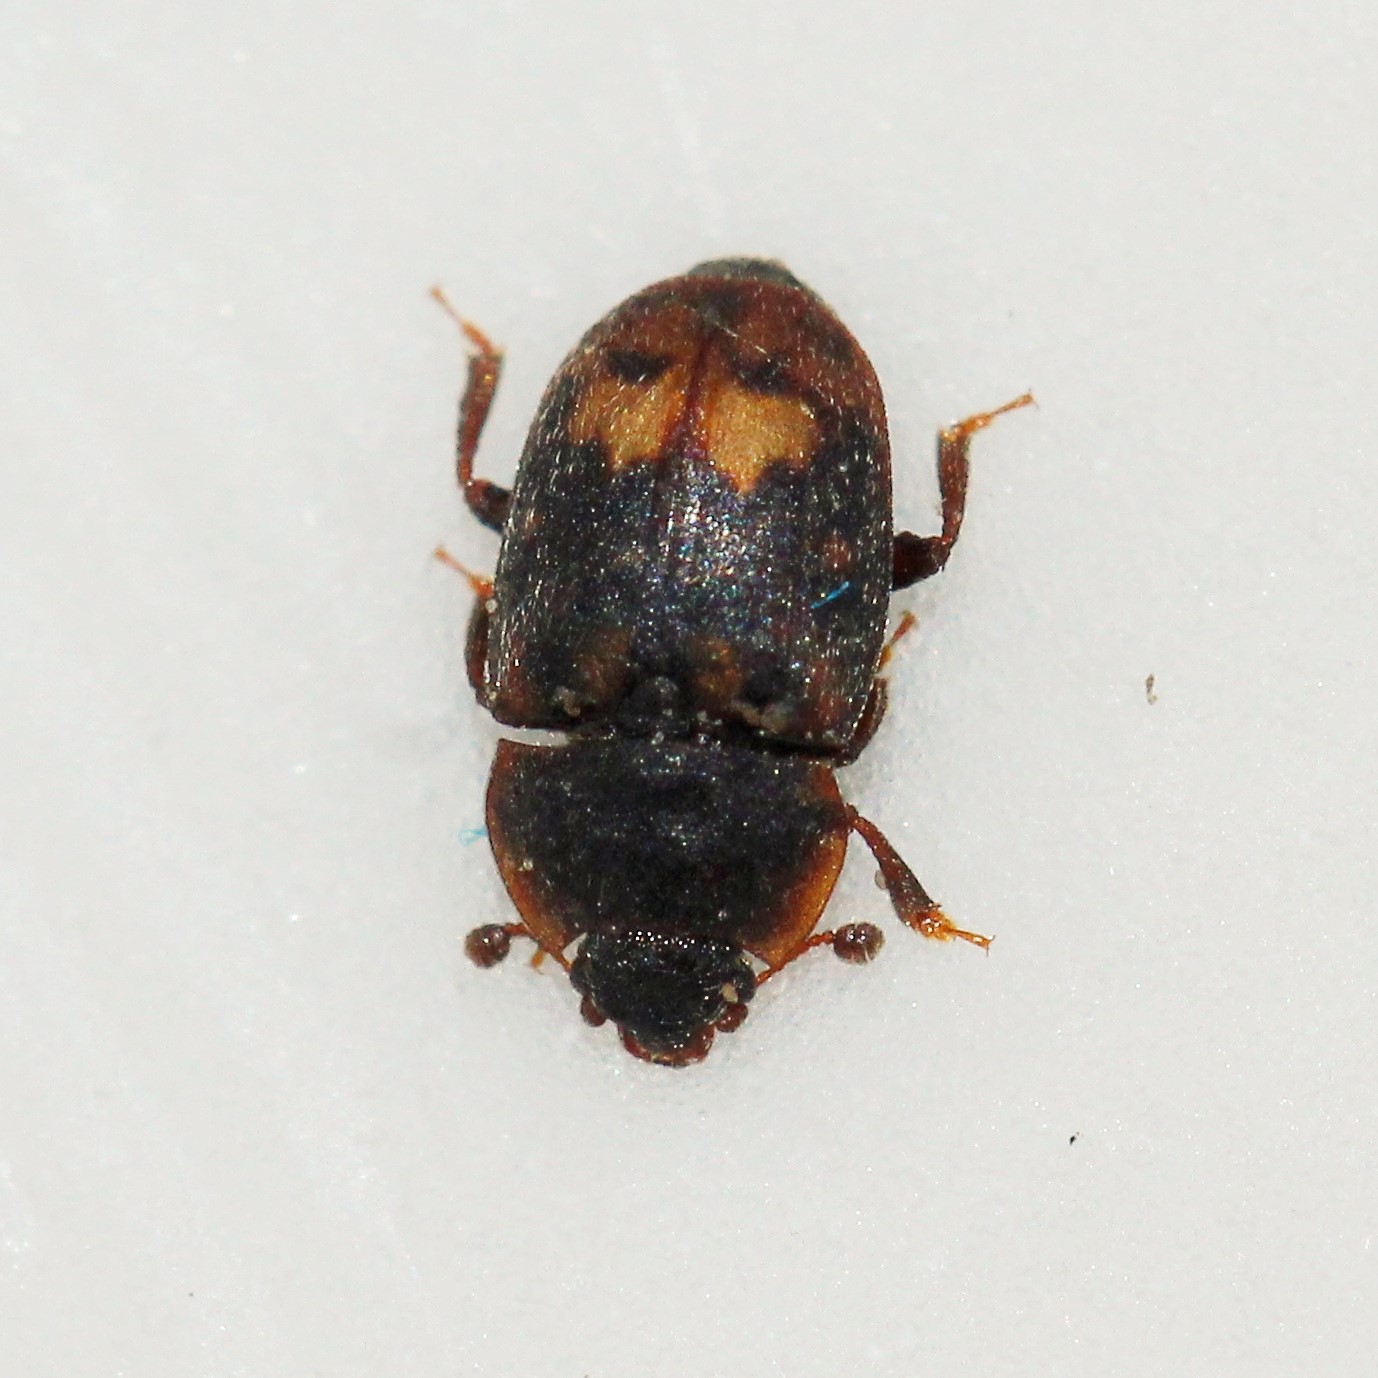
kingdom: Animalia
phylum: Arthropoda
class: Insecta
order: Coleoptera
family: Nitidulidae
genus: Omosita
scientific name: Omosita colon
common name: Sap-feeding beetle
